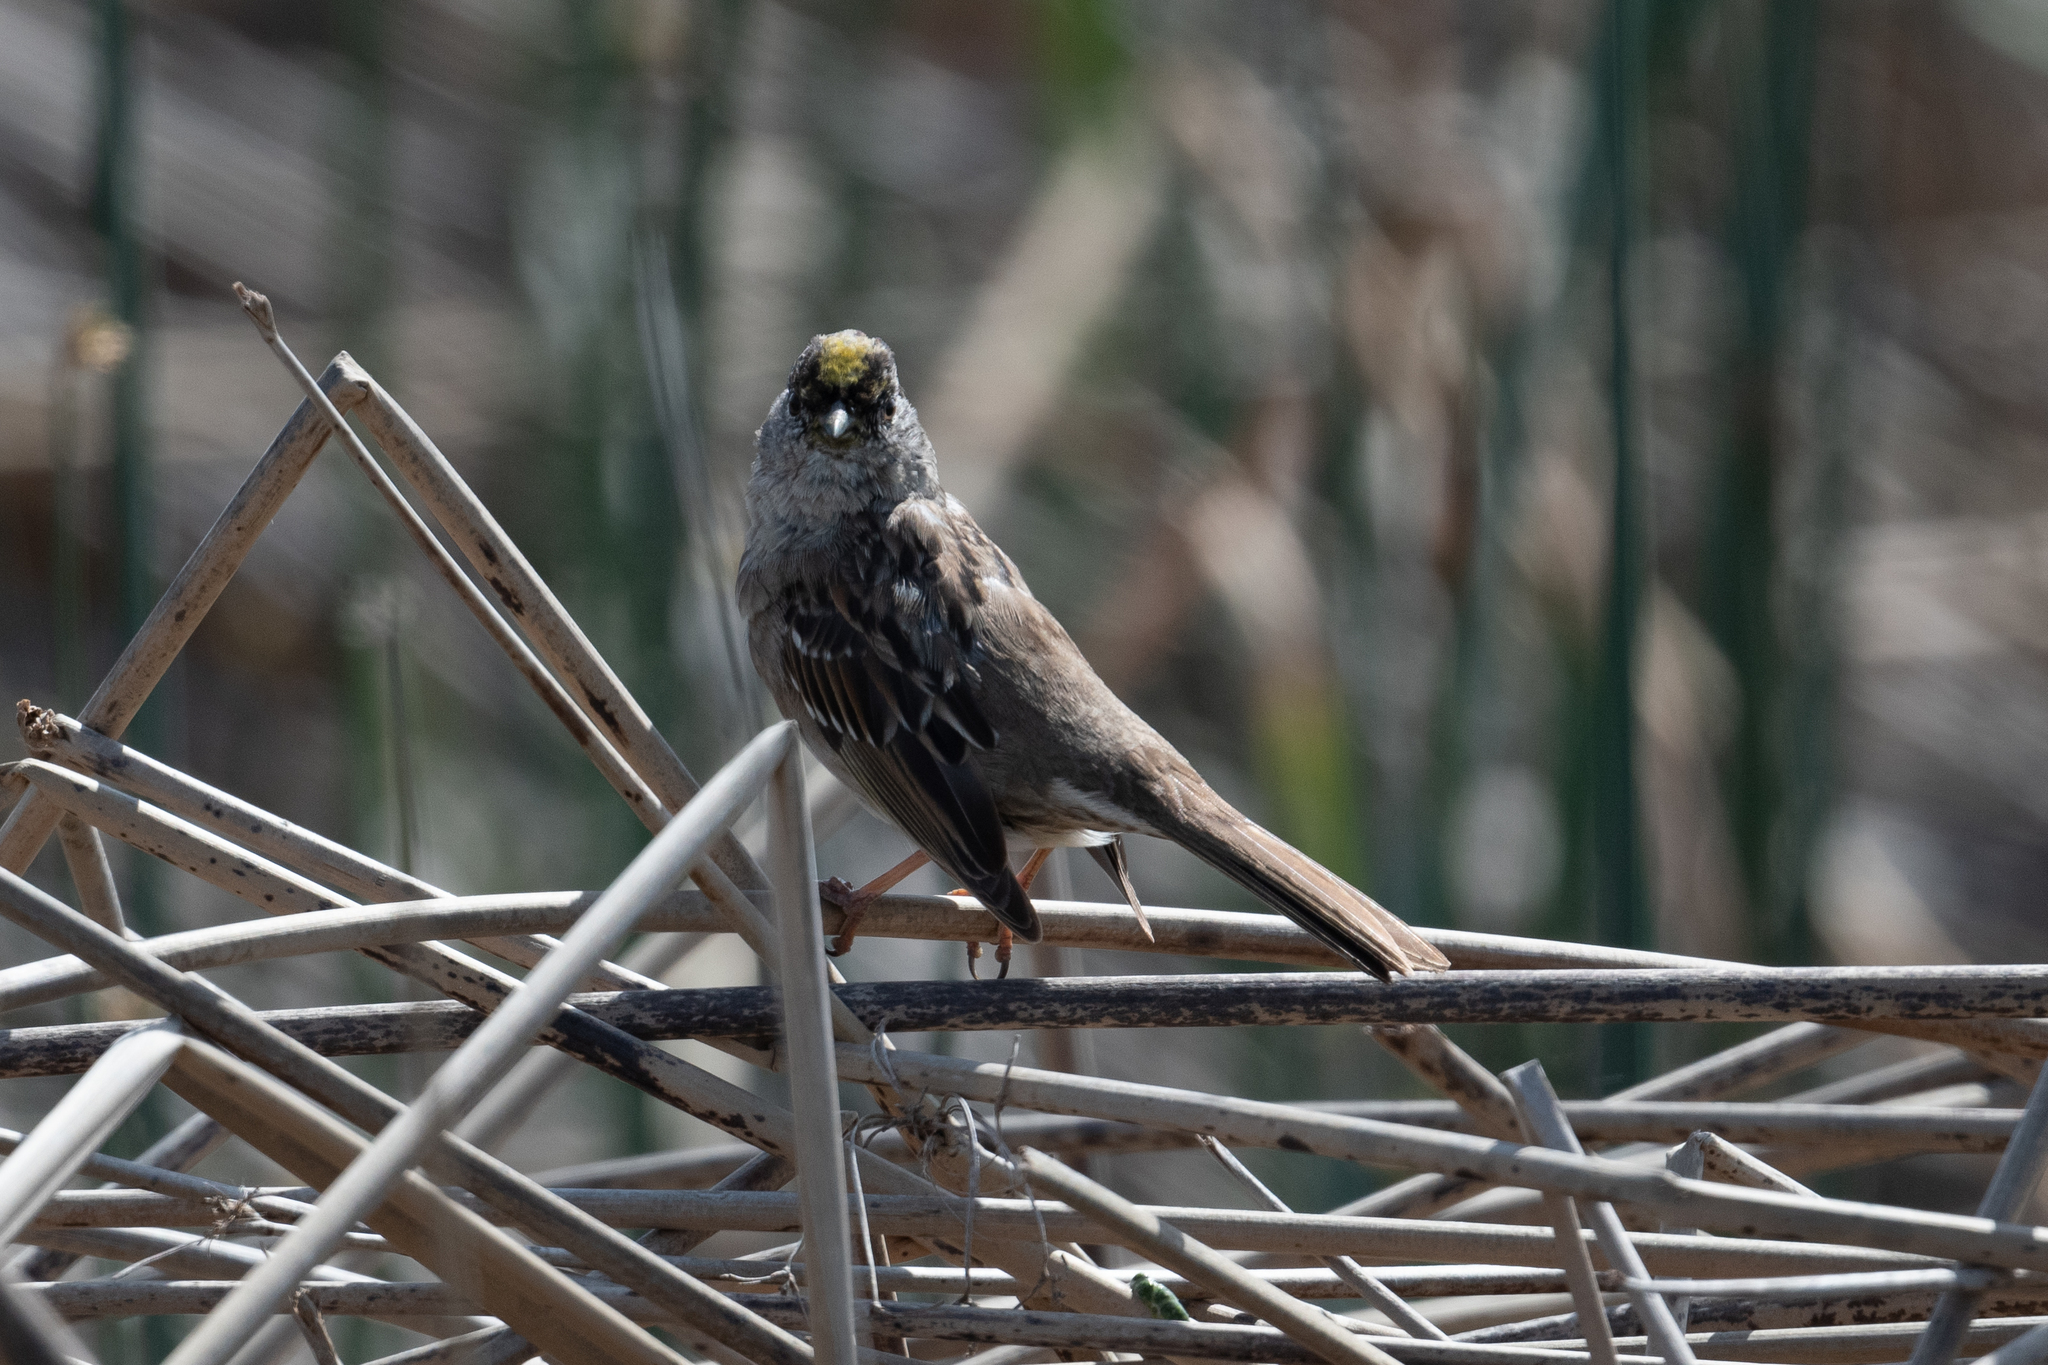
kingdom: Animalia
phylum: Chordata
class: Aves
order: Passeriformes
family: Passerellidae
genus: Zonotrichia
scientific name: Zonotrichia atricapilla
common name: Golden-crowned sparrow
